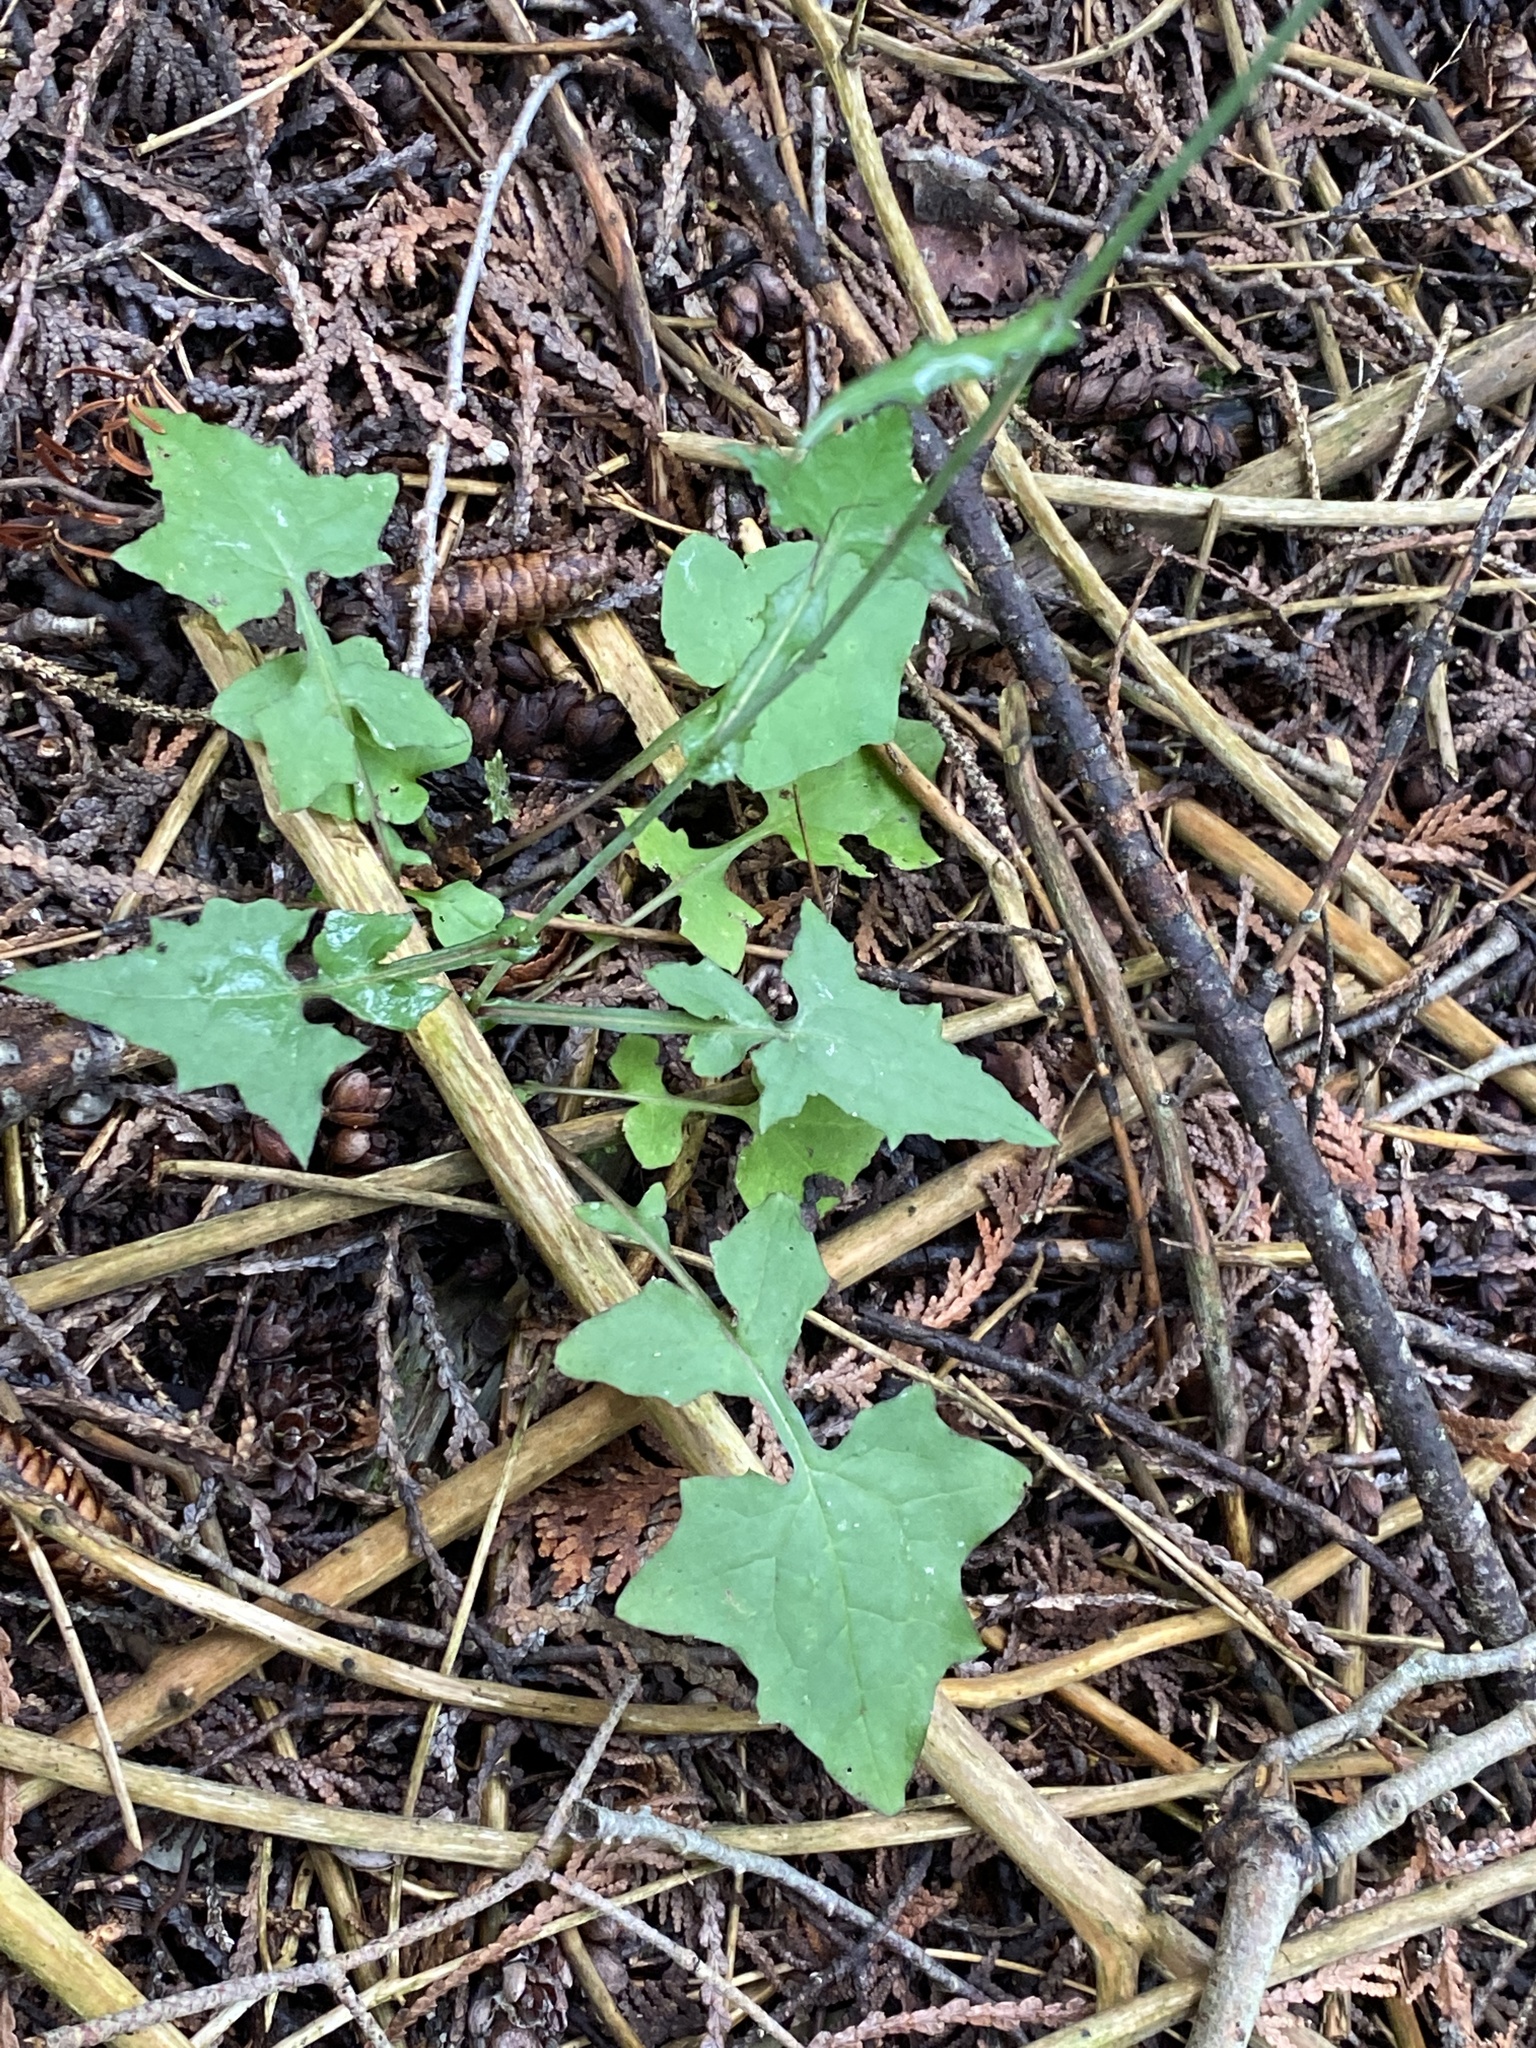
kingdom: Plantae
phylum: Tracheophyta
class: Magnoliopsida
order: Asterales
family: Asteraceae
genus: Mycelis
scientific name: Mycelis muralis
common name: Wall lettuce
